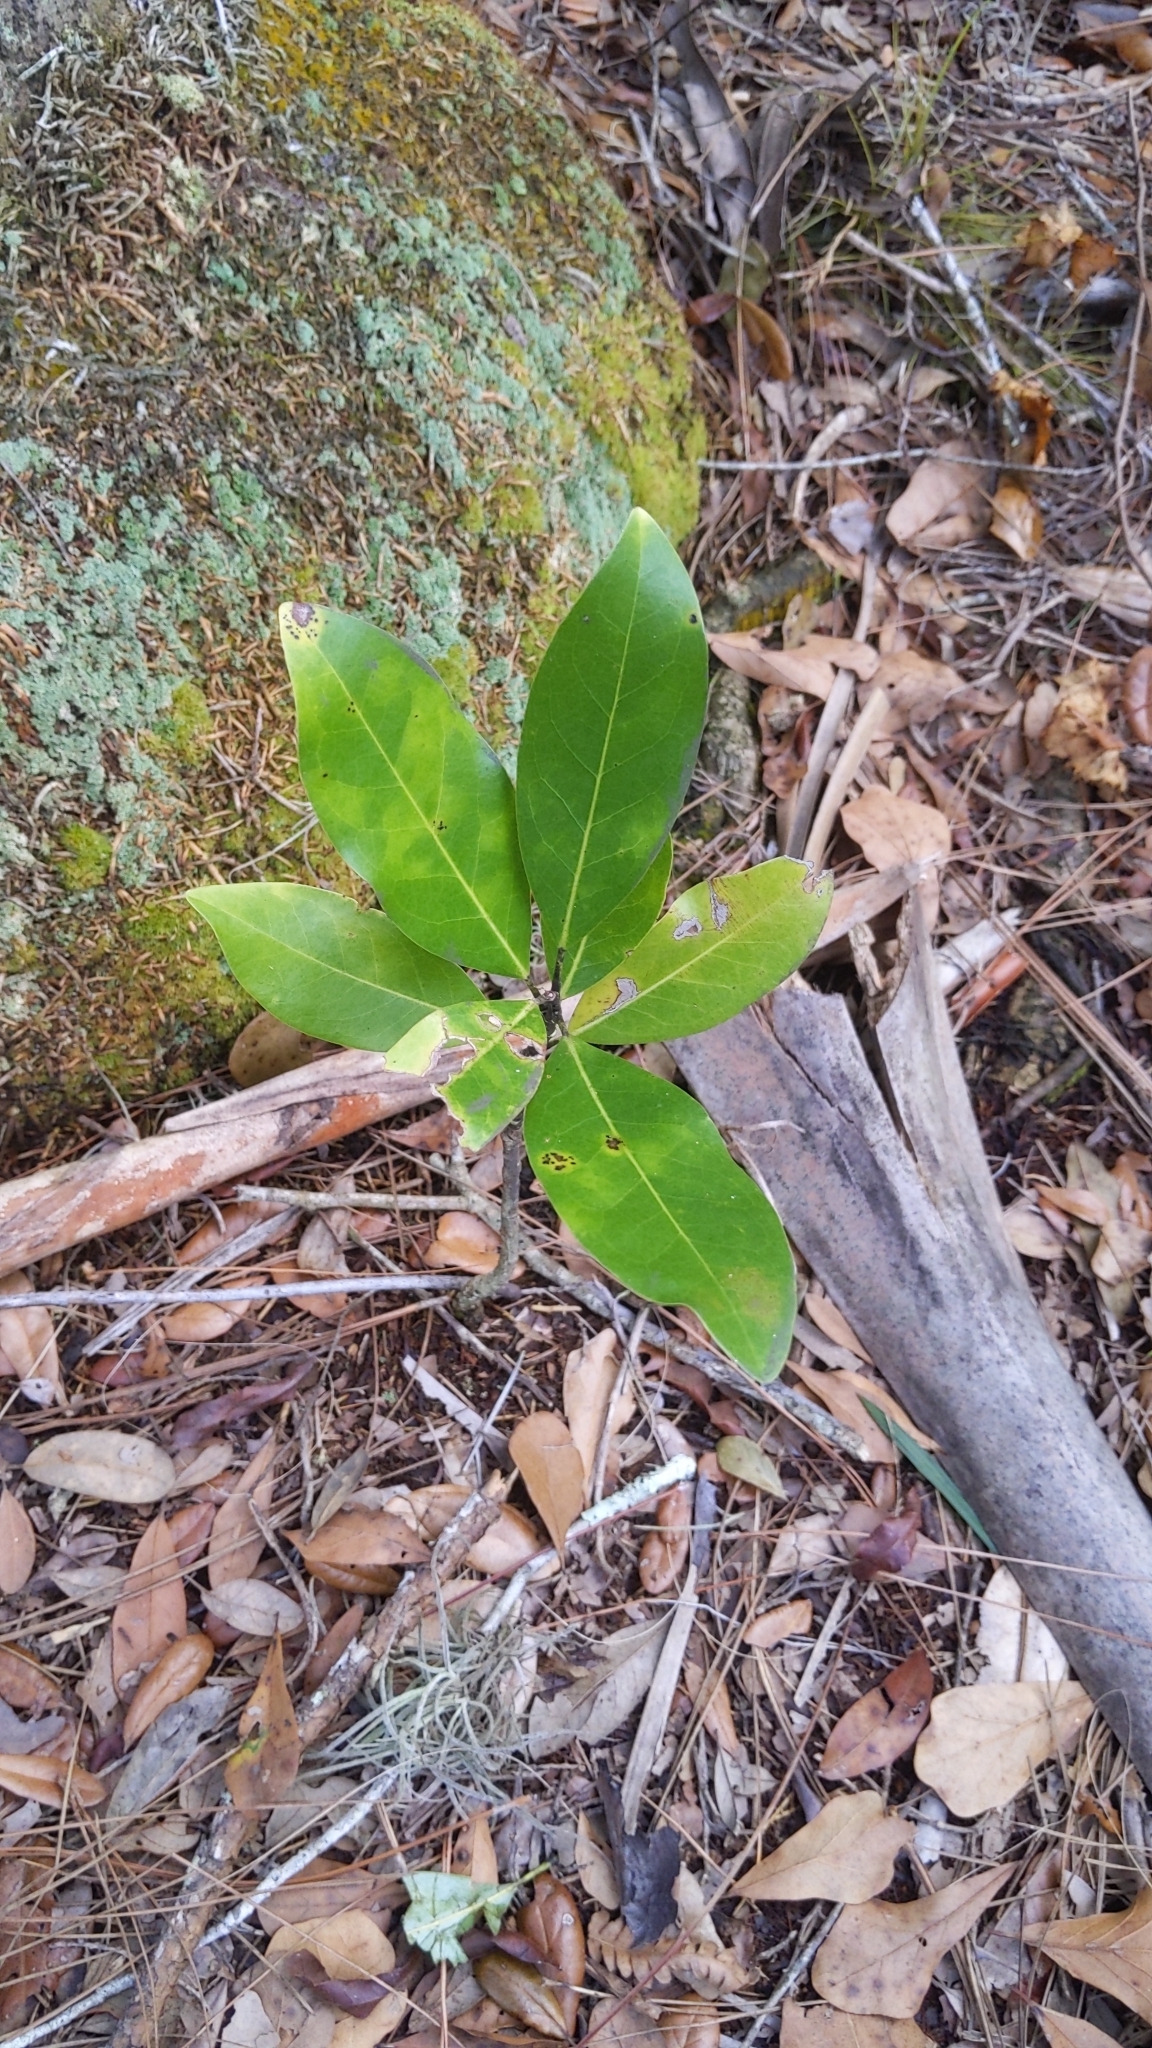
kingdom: Plantae
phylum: Tracheophyta
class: Magnoliopsida
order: Magnoliales
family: Magnoliaceae
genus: Magnolia
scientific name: Magnolia virginiana
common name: Swamp bay
